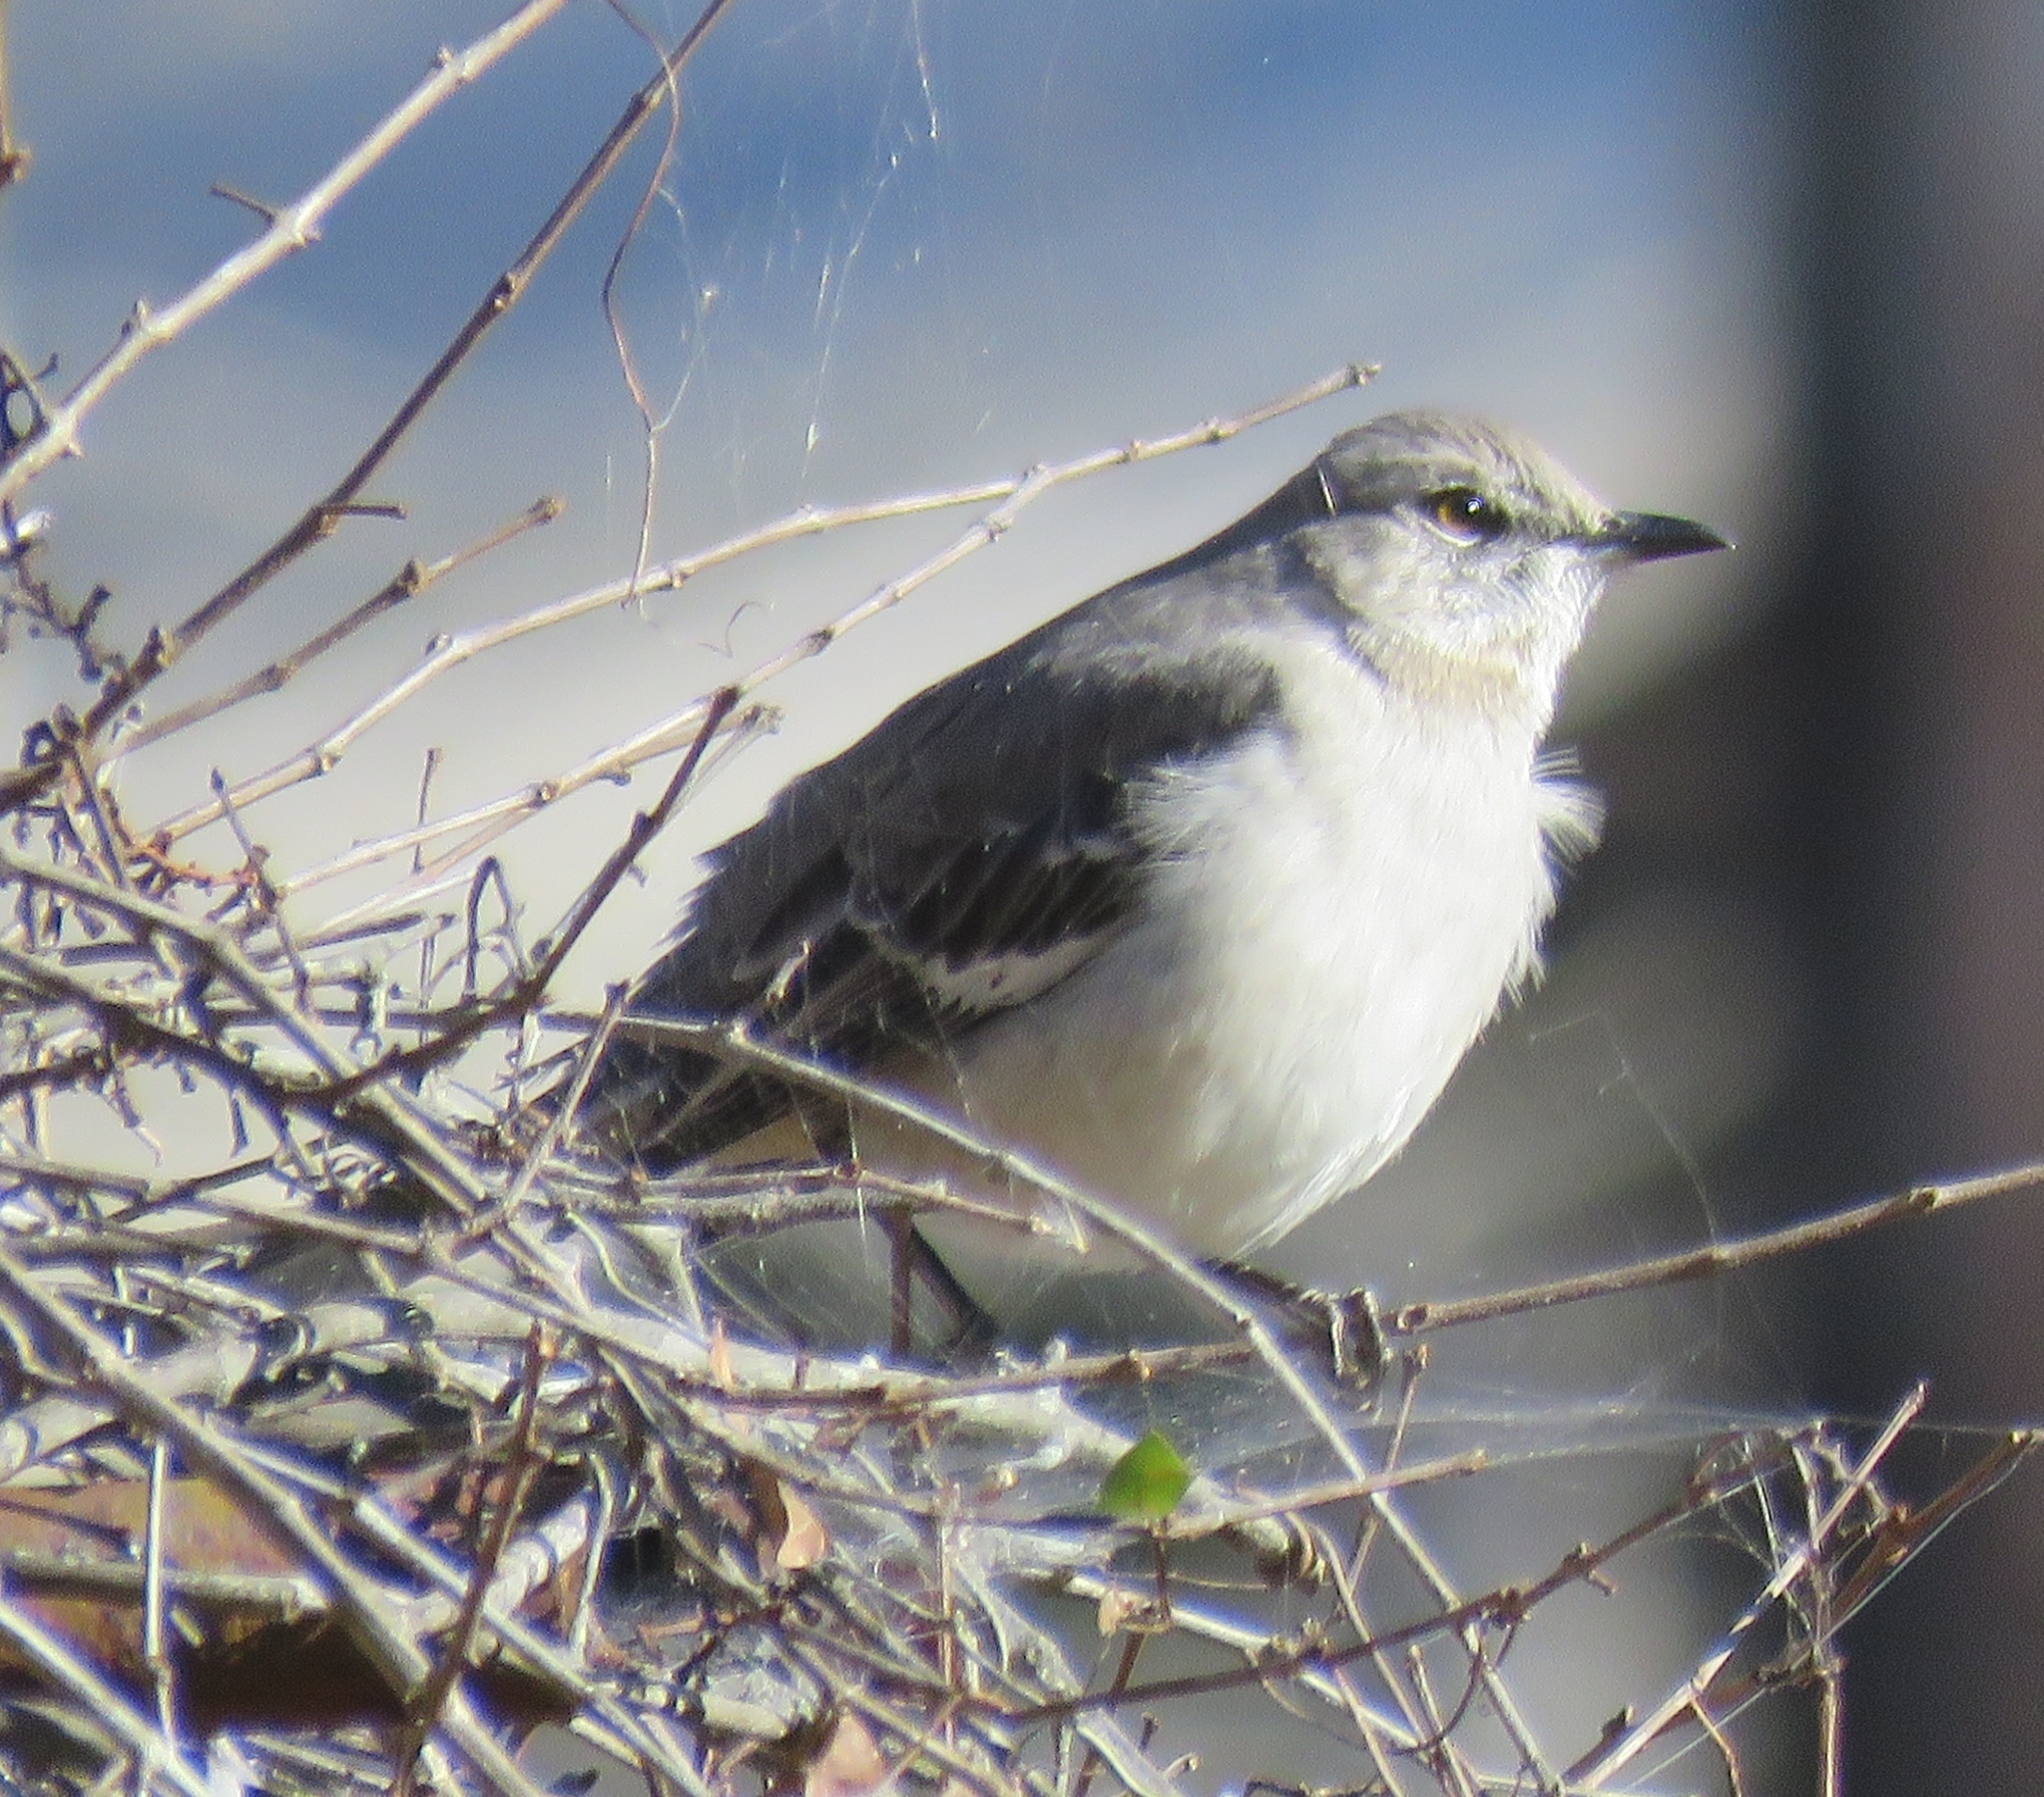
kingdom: Animalia
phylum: Chordata
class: Aves
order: Passeriformes
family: Mimidae
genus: Mimus
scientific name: Mimus polyglottos
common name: Northern mockingbird
